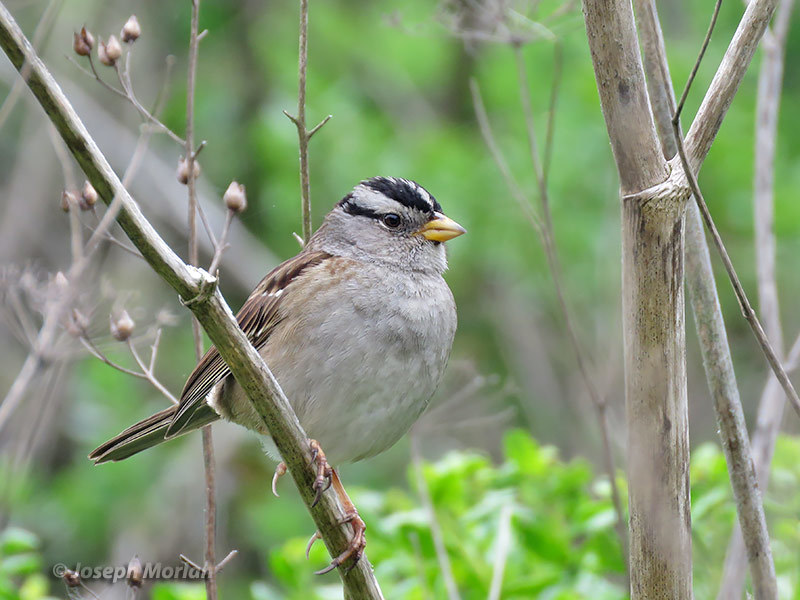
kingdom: Animalia
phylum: Chordata
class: Aves
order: Passeriformes
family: Passerellidae
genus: Zonotrichia
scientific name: Zonotrichia leucophrys
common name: White-crowned sparrow
